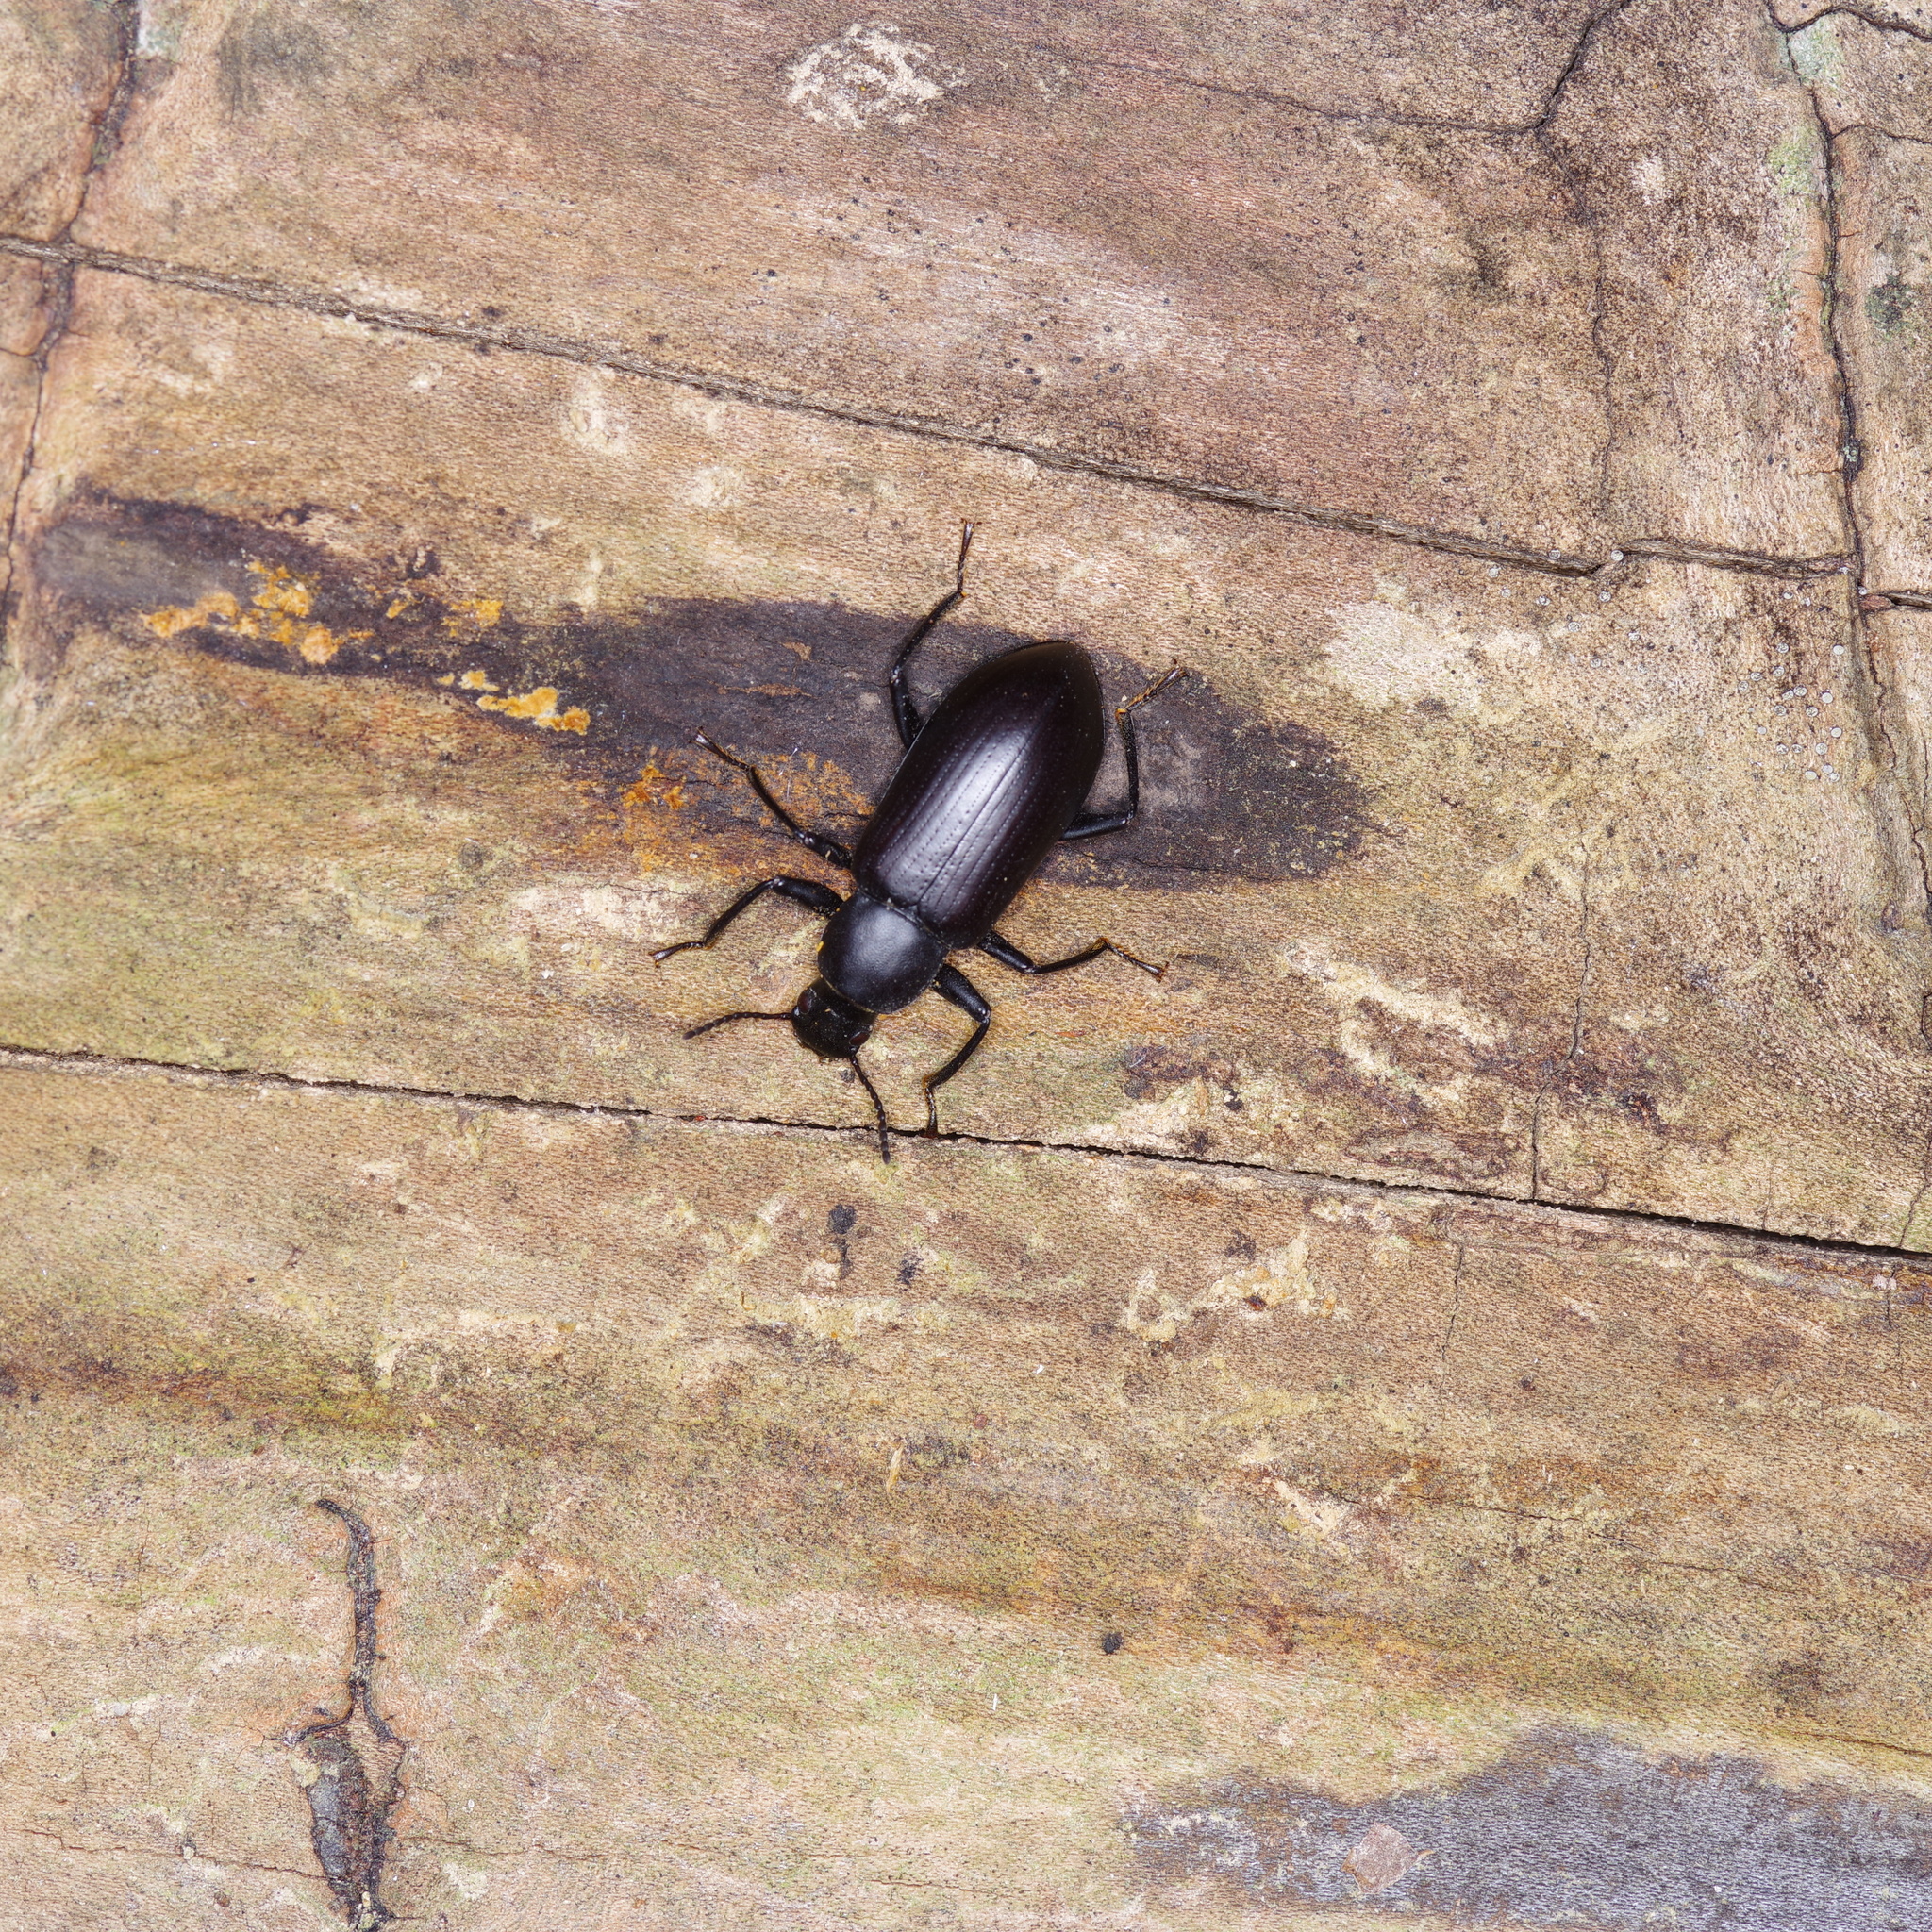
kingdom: Animalia
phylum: Arthropoda
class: Insecta
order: Coleoptera
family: Tenebrionidae
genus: Alobates
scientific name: Alobates
